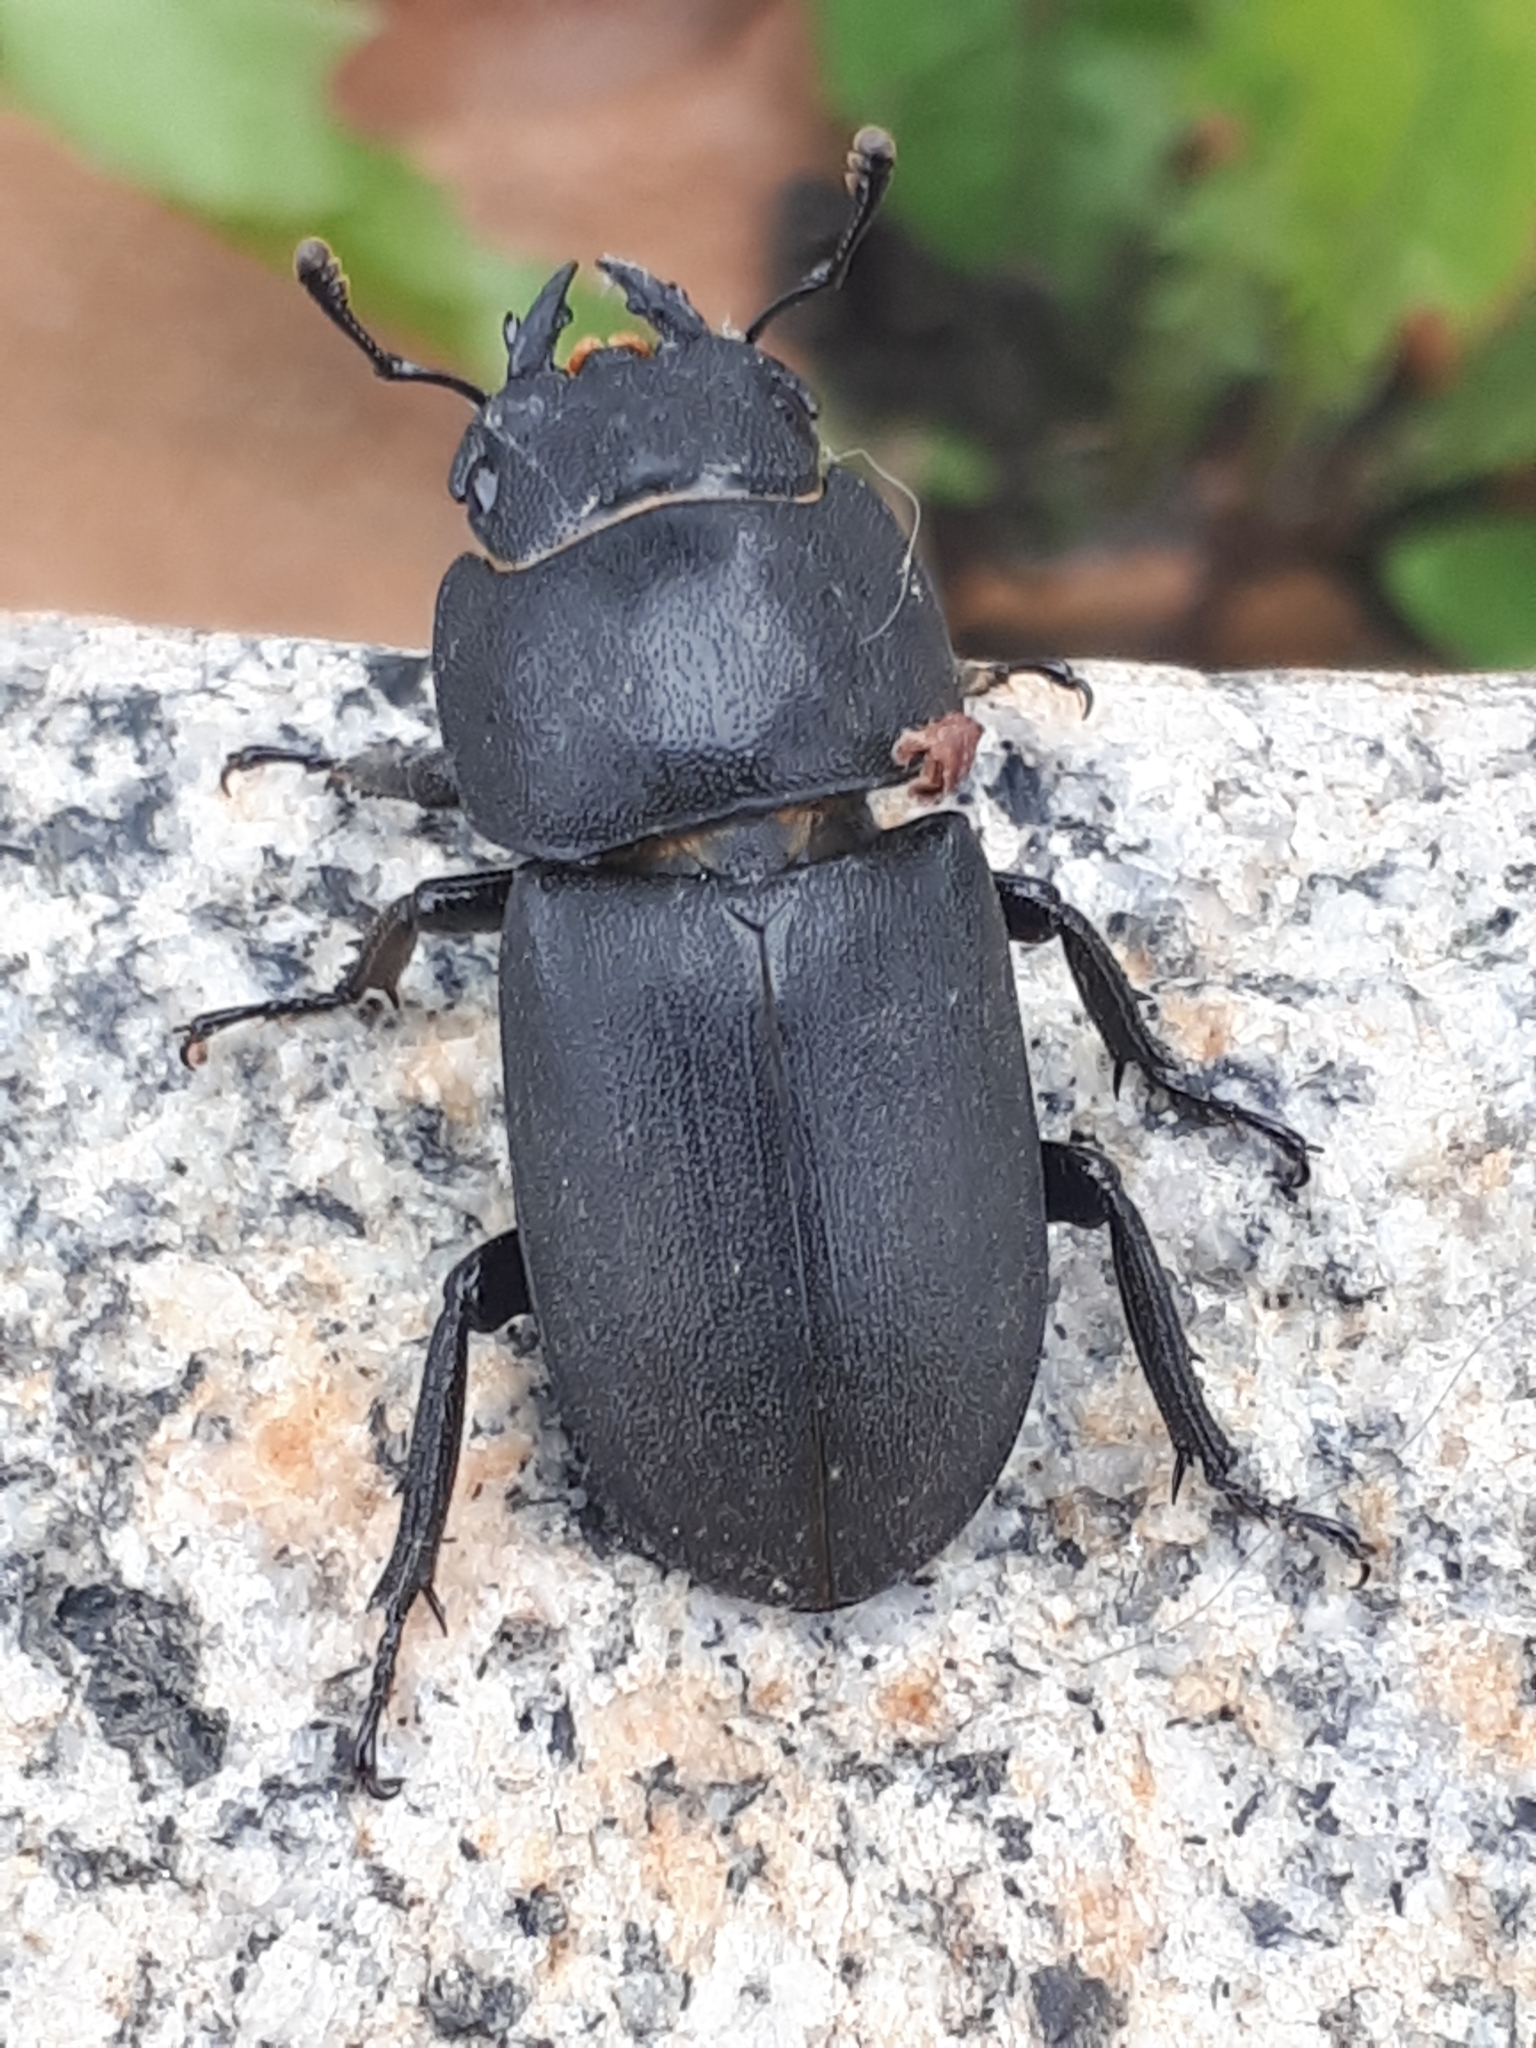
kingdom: Animalia
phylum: Arthropoda
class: Insecta
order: Coleoptera
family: Lucanidae
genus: Dorcus
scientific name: Dorcus parallelipipedus
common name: Lesser stag beetle
